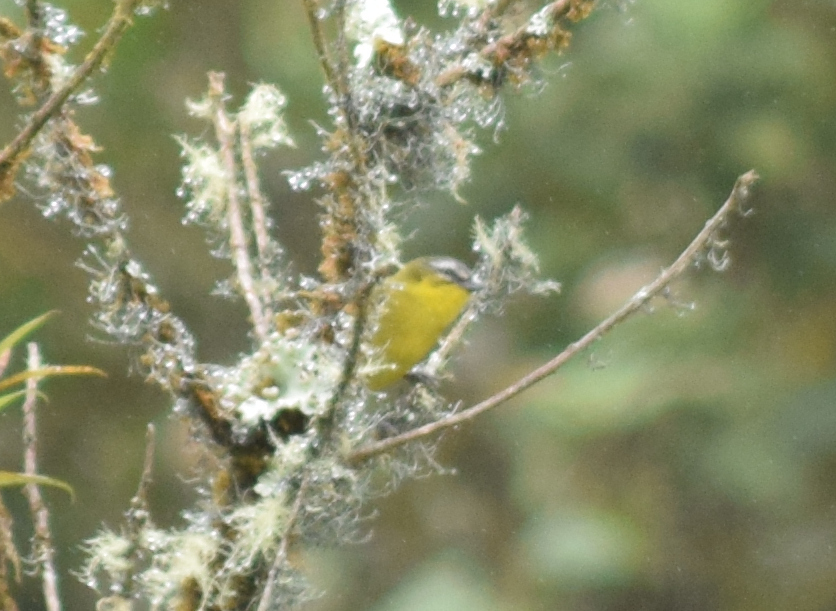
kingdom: Animalia
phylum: Chordata
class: Aves
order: Passeriformes
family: Thraupidae
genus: Thlypopsis
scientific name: Thlypopsis superciliaris
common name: Superciliaried hemispingus
